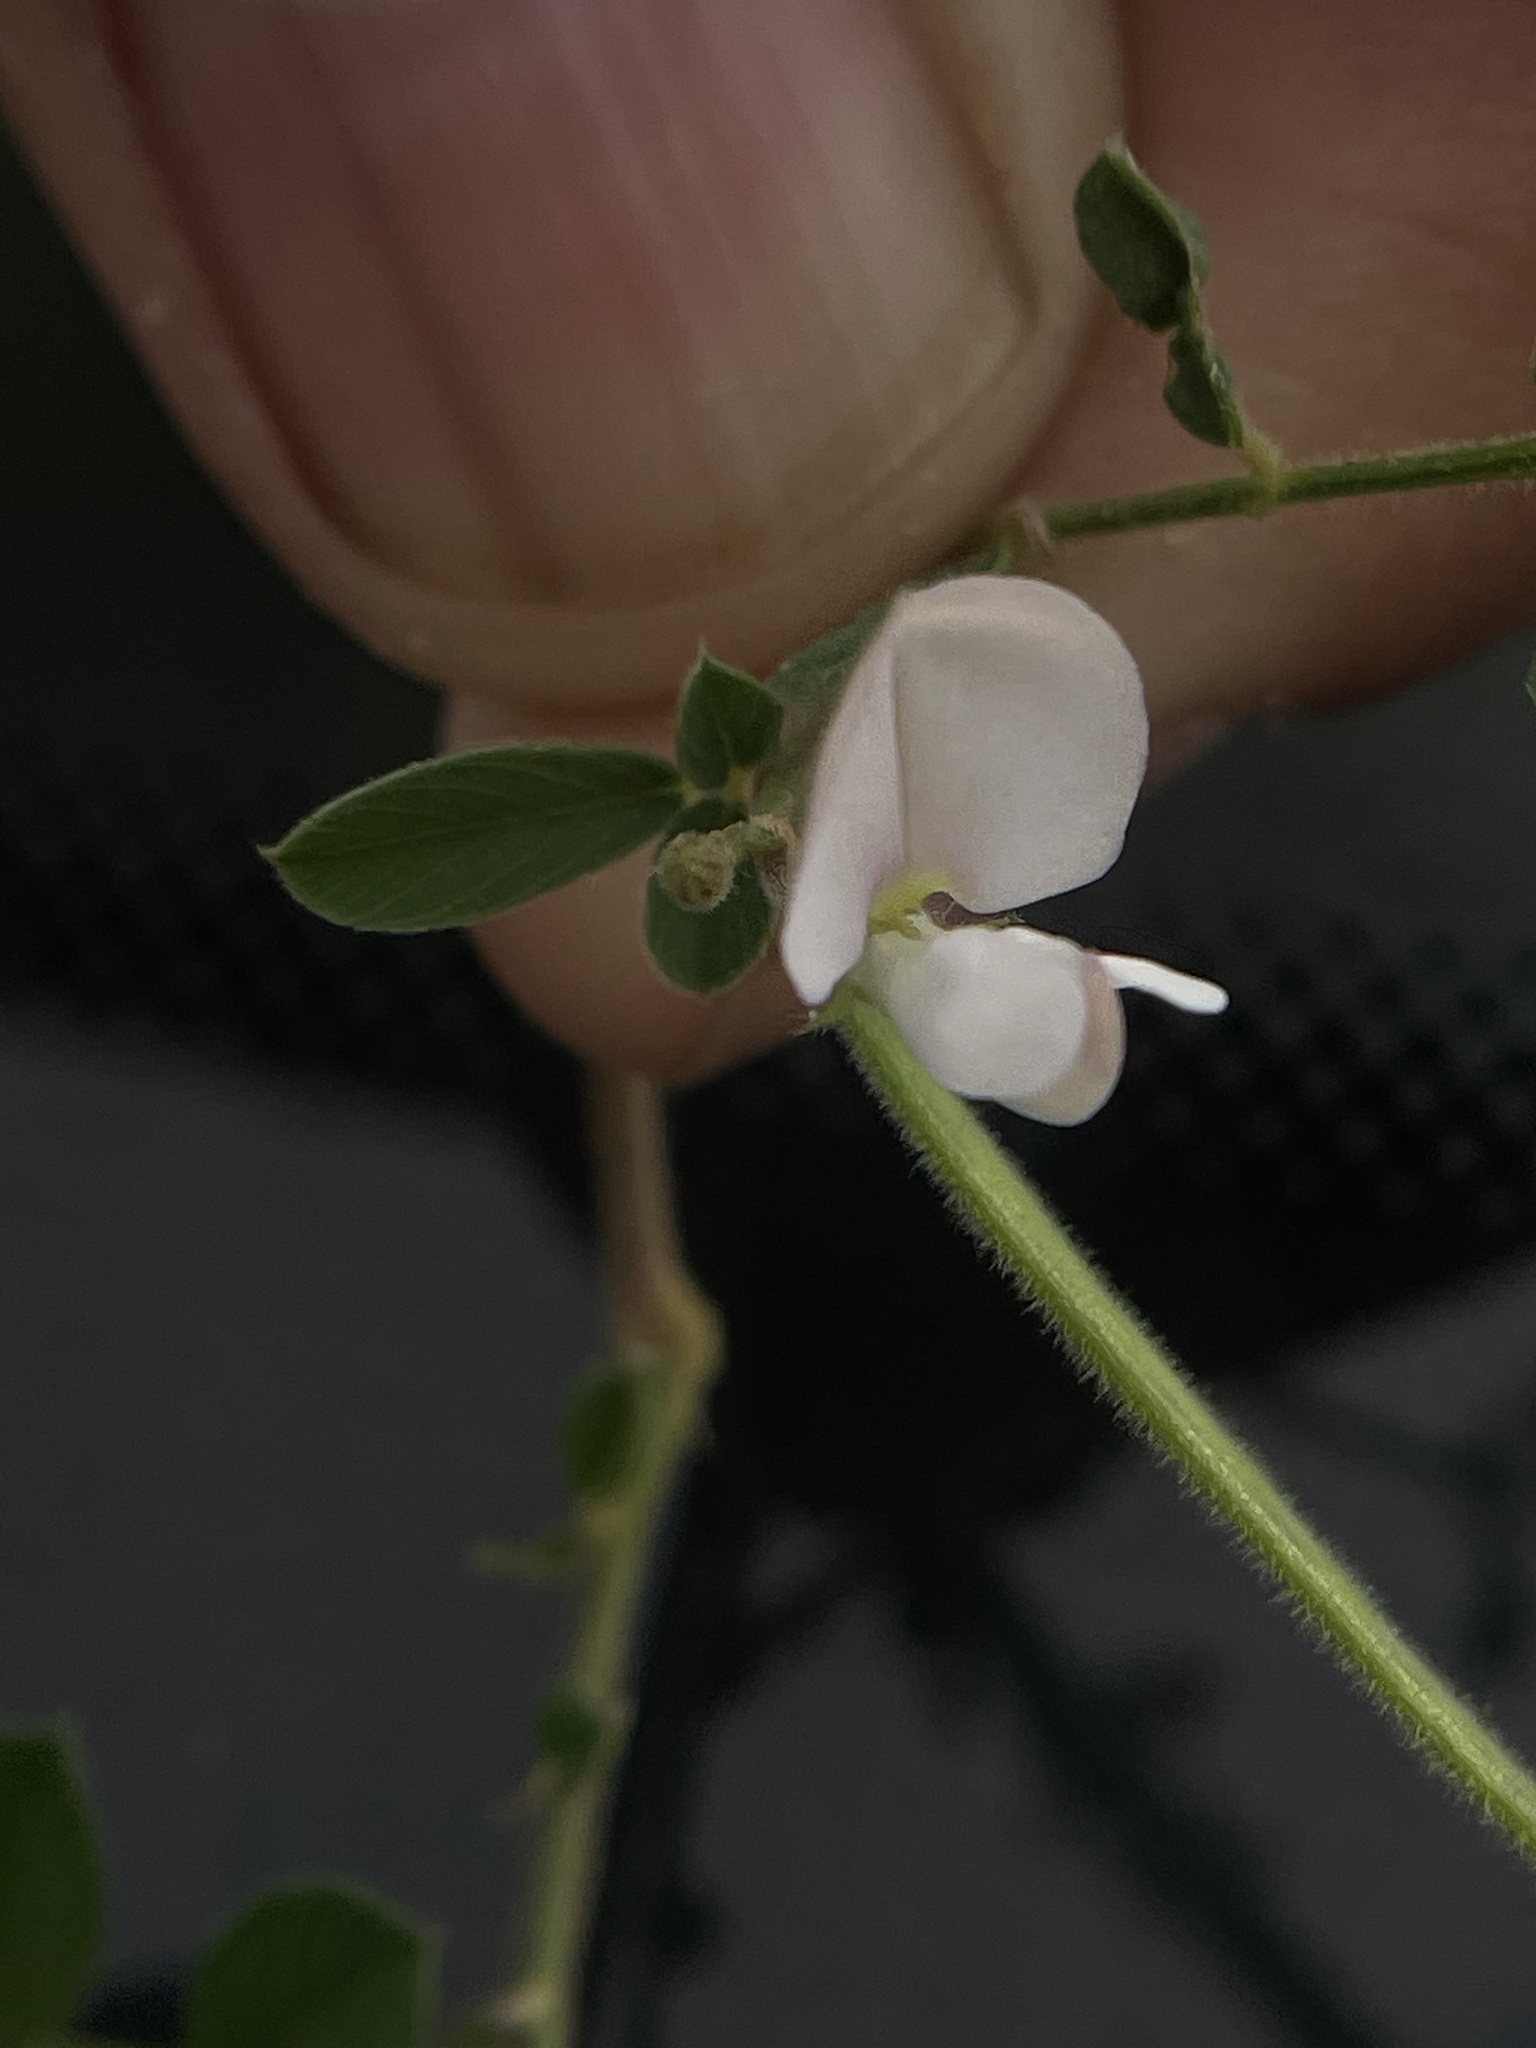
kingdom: Plantae
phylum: Tracheophyta
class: Magnoliopsida
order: Fabales
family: Fabaceae
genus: Tephrosia
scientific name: Tephrosia pumila
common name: Indigo sauvage
